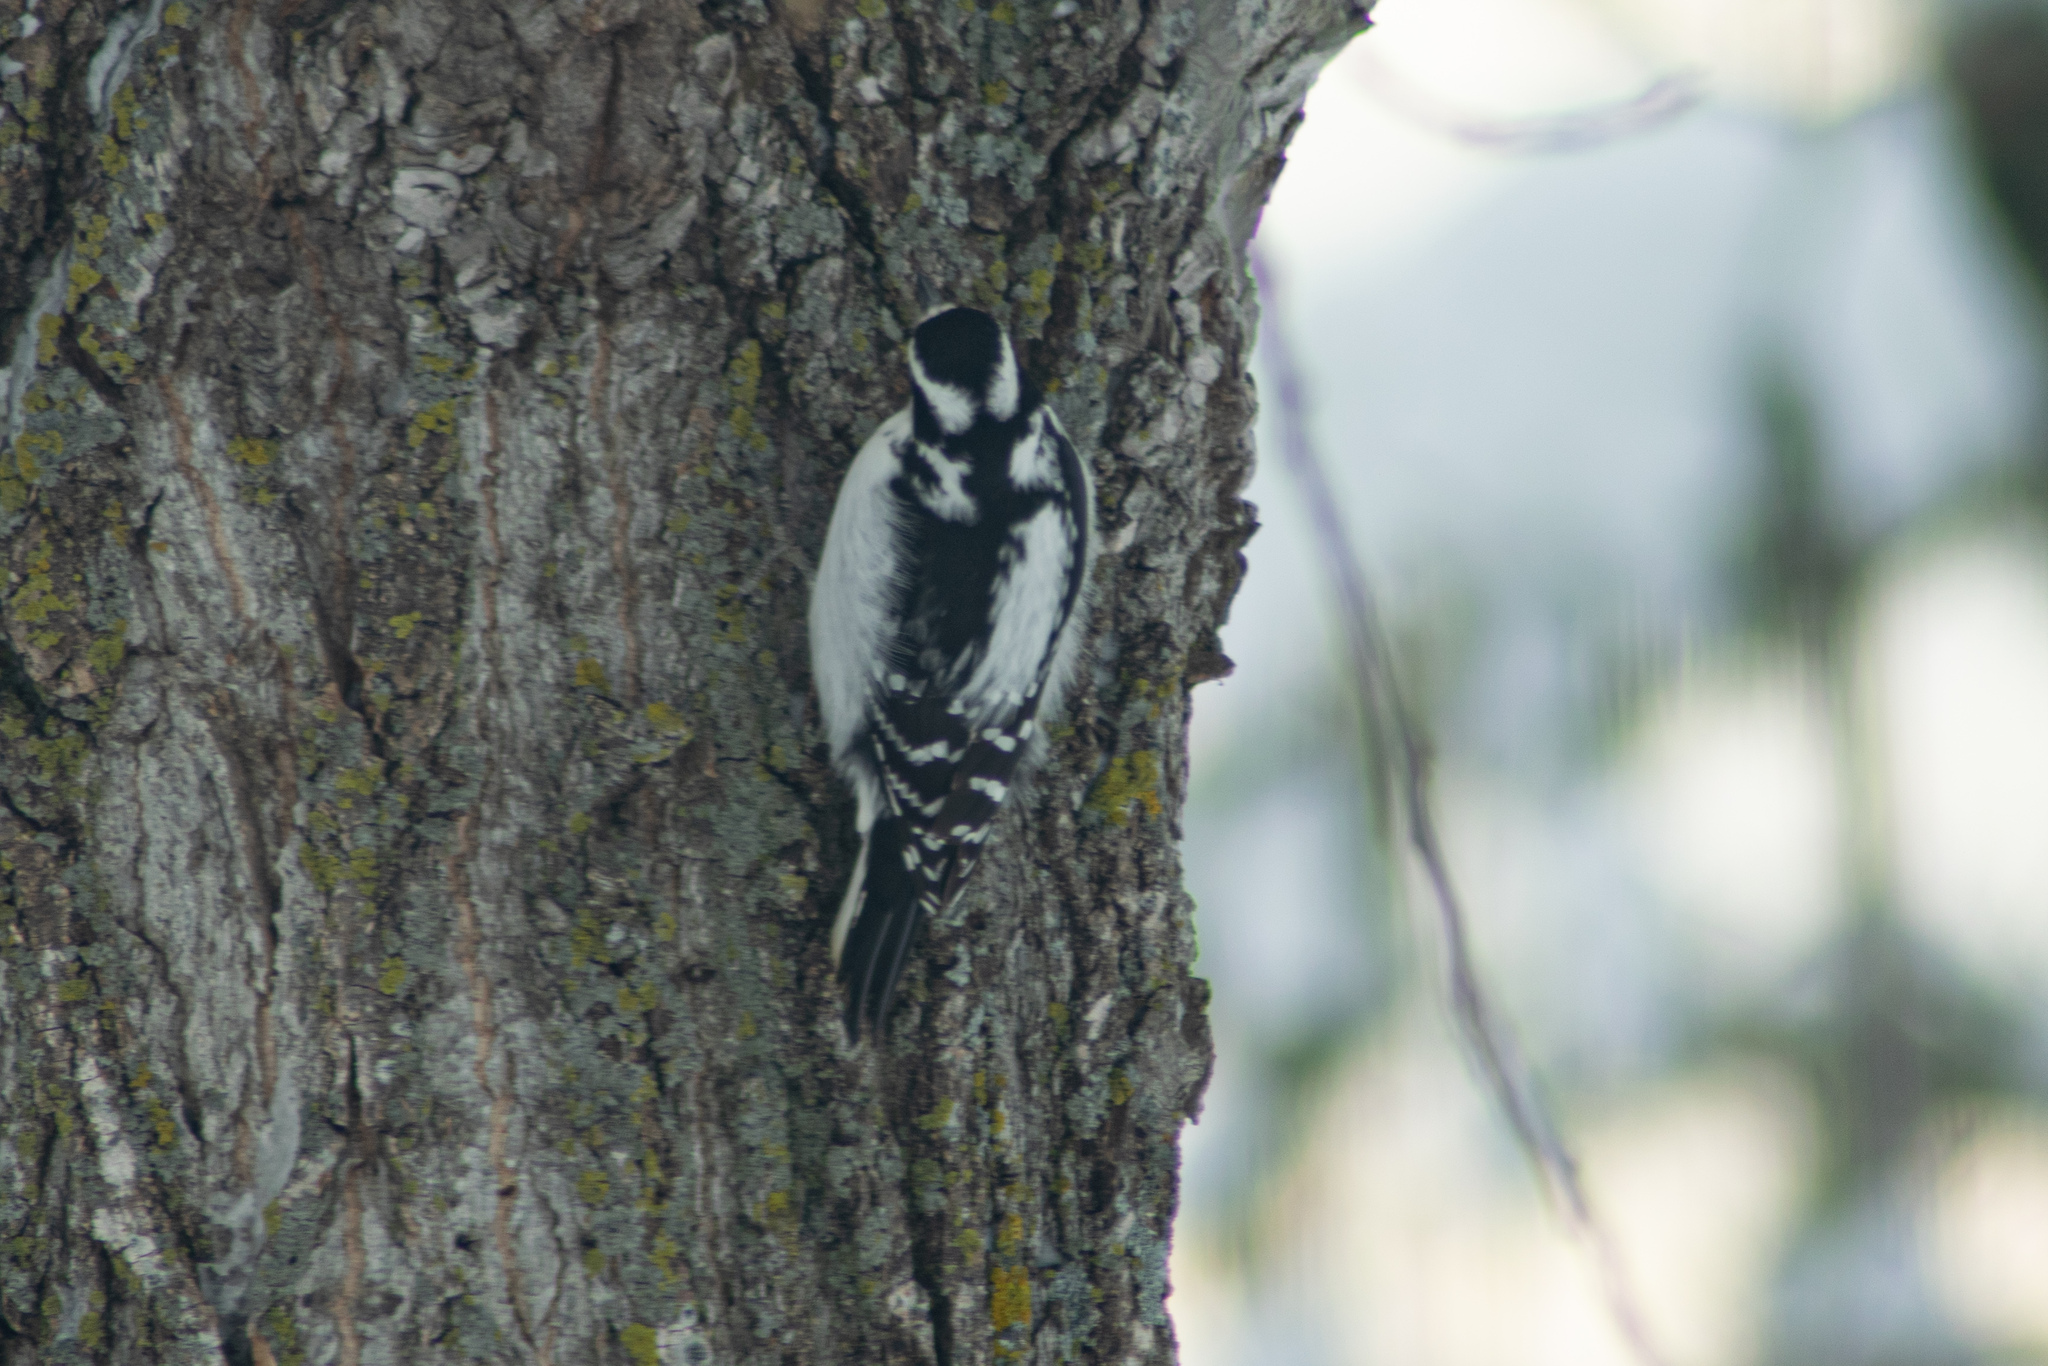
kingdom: Animalia
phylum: Chordata
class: Aves
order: Piciformes
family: Picidae
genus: Leuconotopicus
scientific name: Leuconotopicus villosus
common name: Hairy woodpecker
